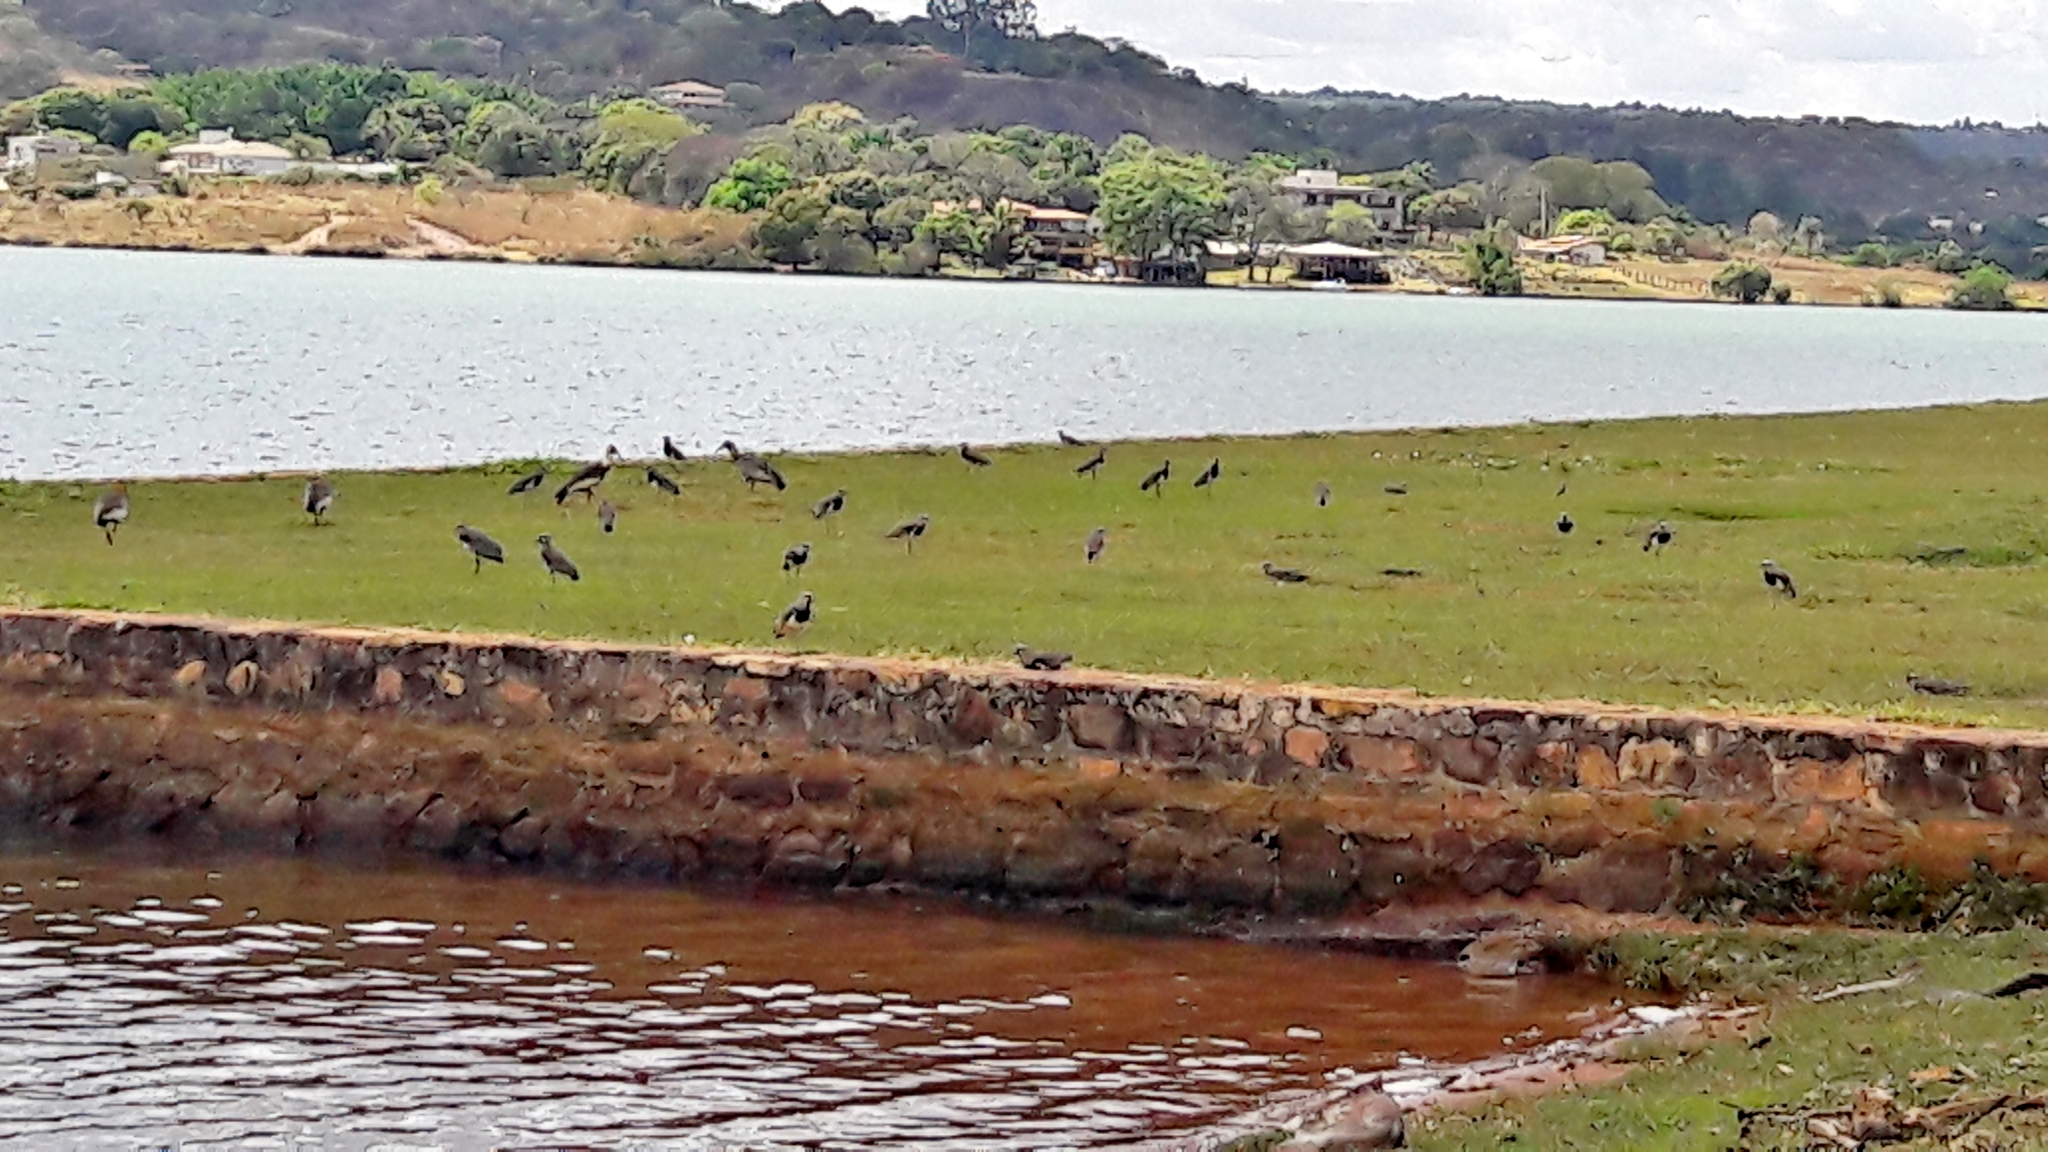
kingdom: Animalia
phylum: Chordata
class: Aves
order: Pelecaniformes
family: Threskiornithidae
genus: Theristicus
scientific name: Theristicus caudatus
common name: Buff-necked ibis
